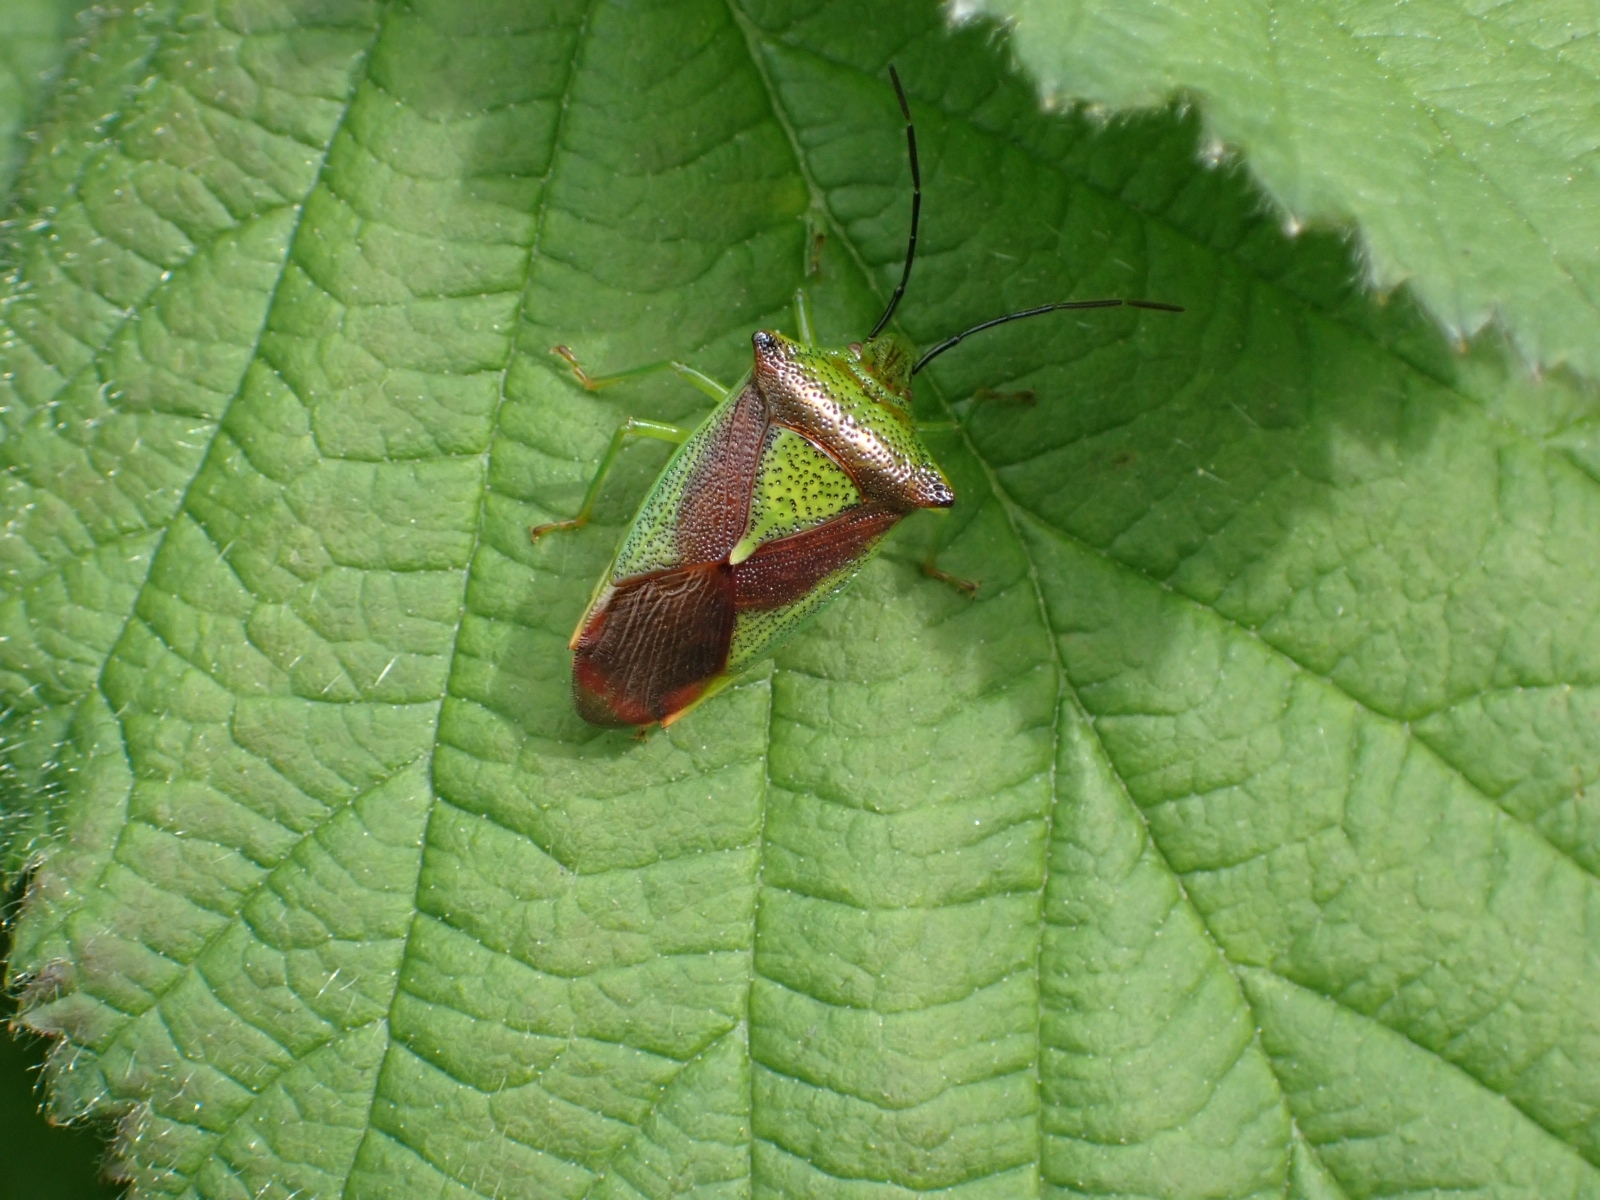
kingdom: Animalia
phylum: Arthropoda
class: Insecta
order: Hemiptera
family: Acanthosomatidae
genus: Acanthosoma
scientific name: Acanthosoma haemorrhoidale
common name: Hawthorn shieldbug
